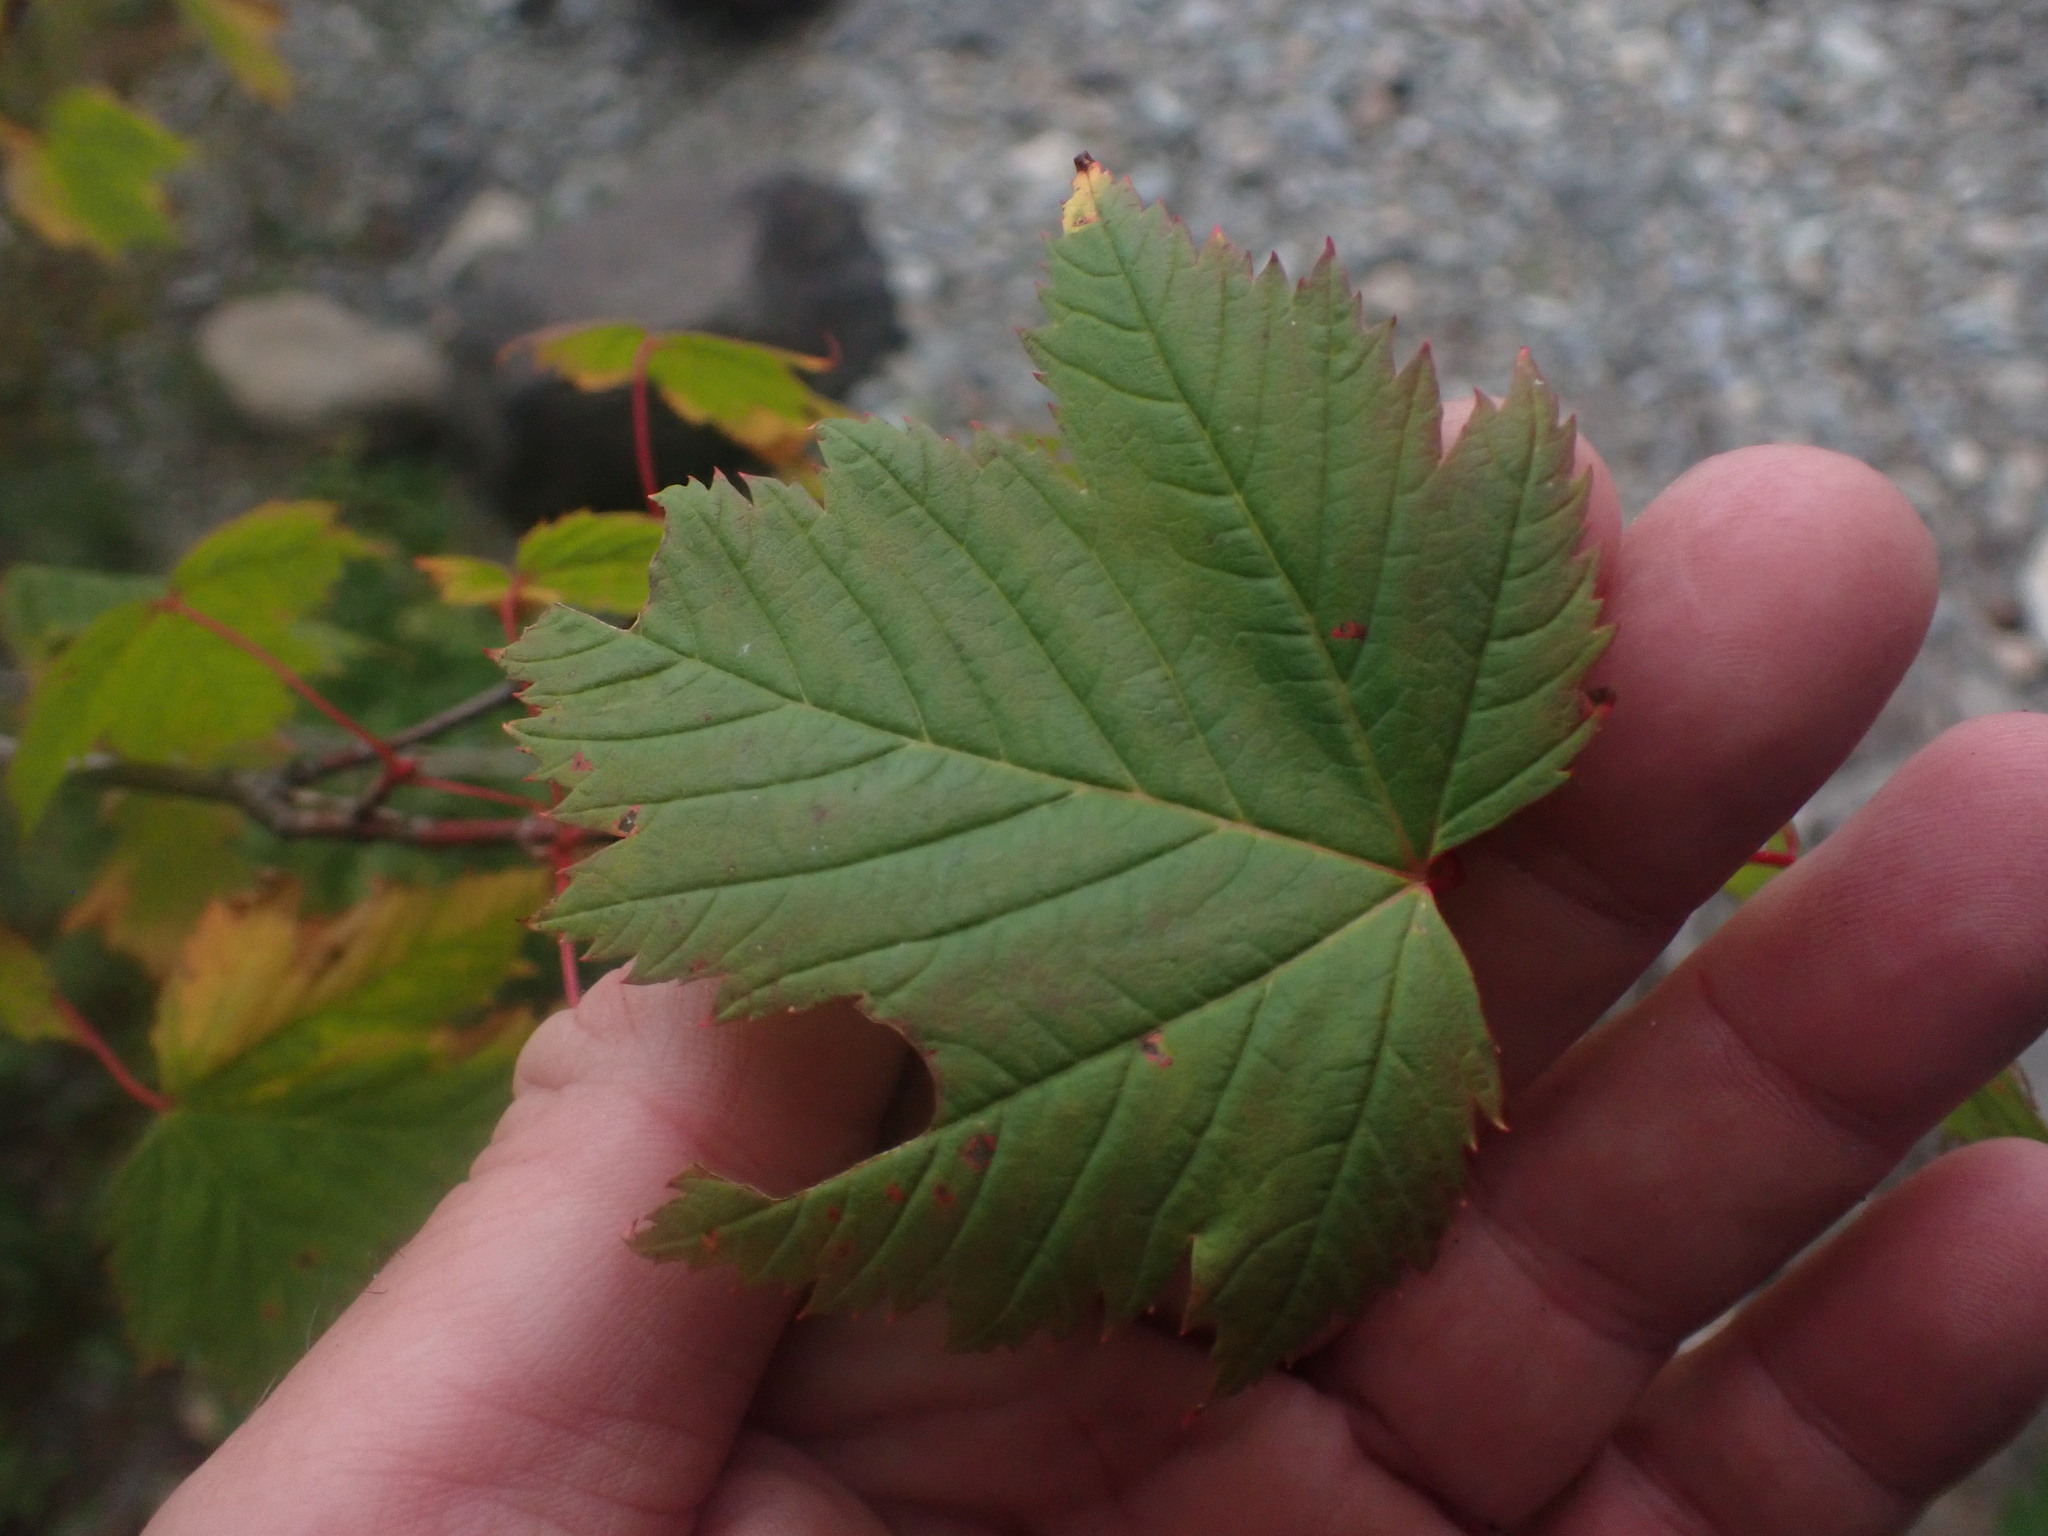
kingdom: Plantae
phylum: Tracheophyta
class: Magnoliopsida
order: Sapindales
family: Sapindaceae
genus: Acer
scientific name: Acer glabrum
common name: Rocky mountain maple
